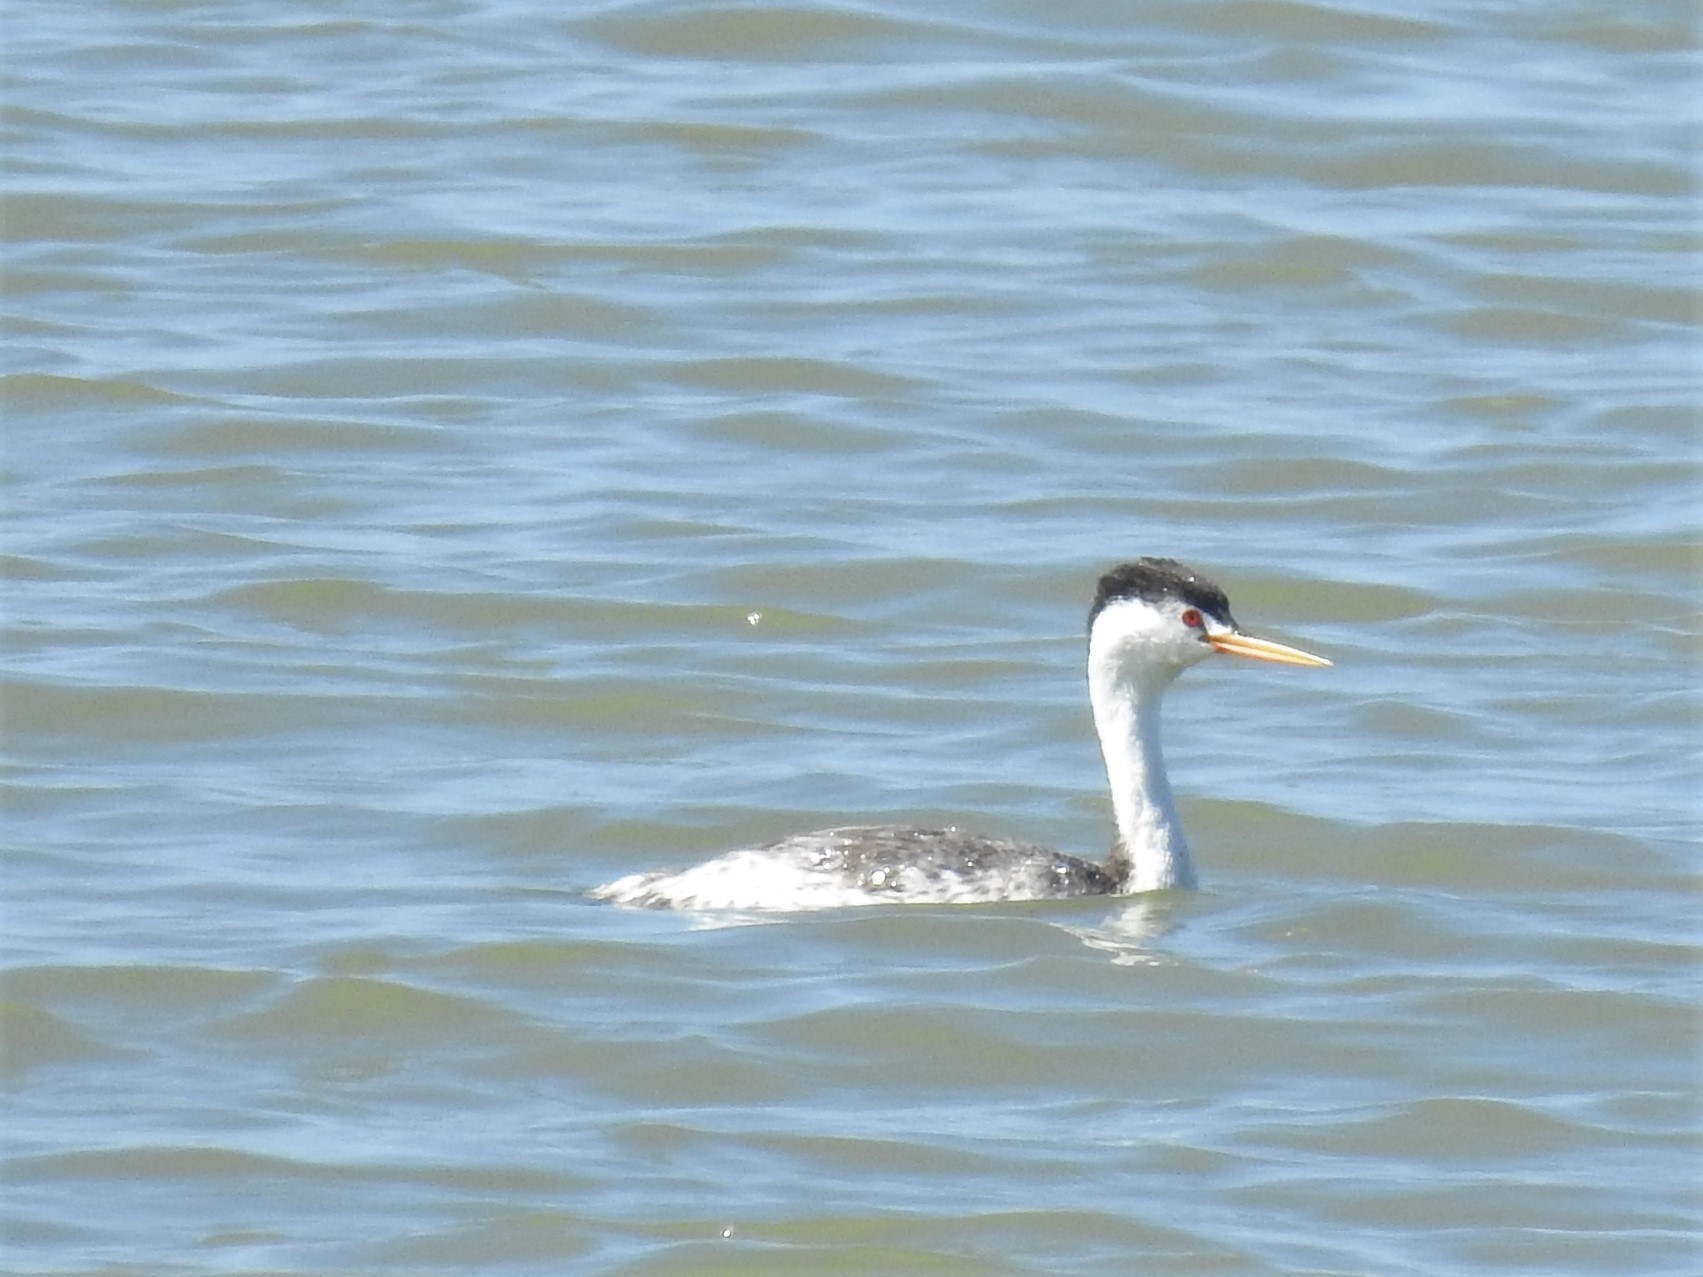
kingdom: Animalia
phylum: Chordata
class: Aves
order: Podicipediformes
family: Podicipedidae
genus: Aechmophorus
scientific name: Aechmophorus clarkii
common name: Clark's grebe
